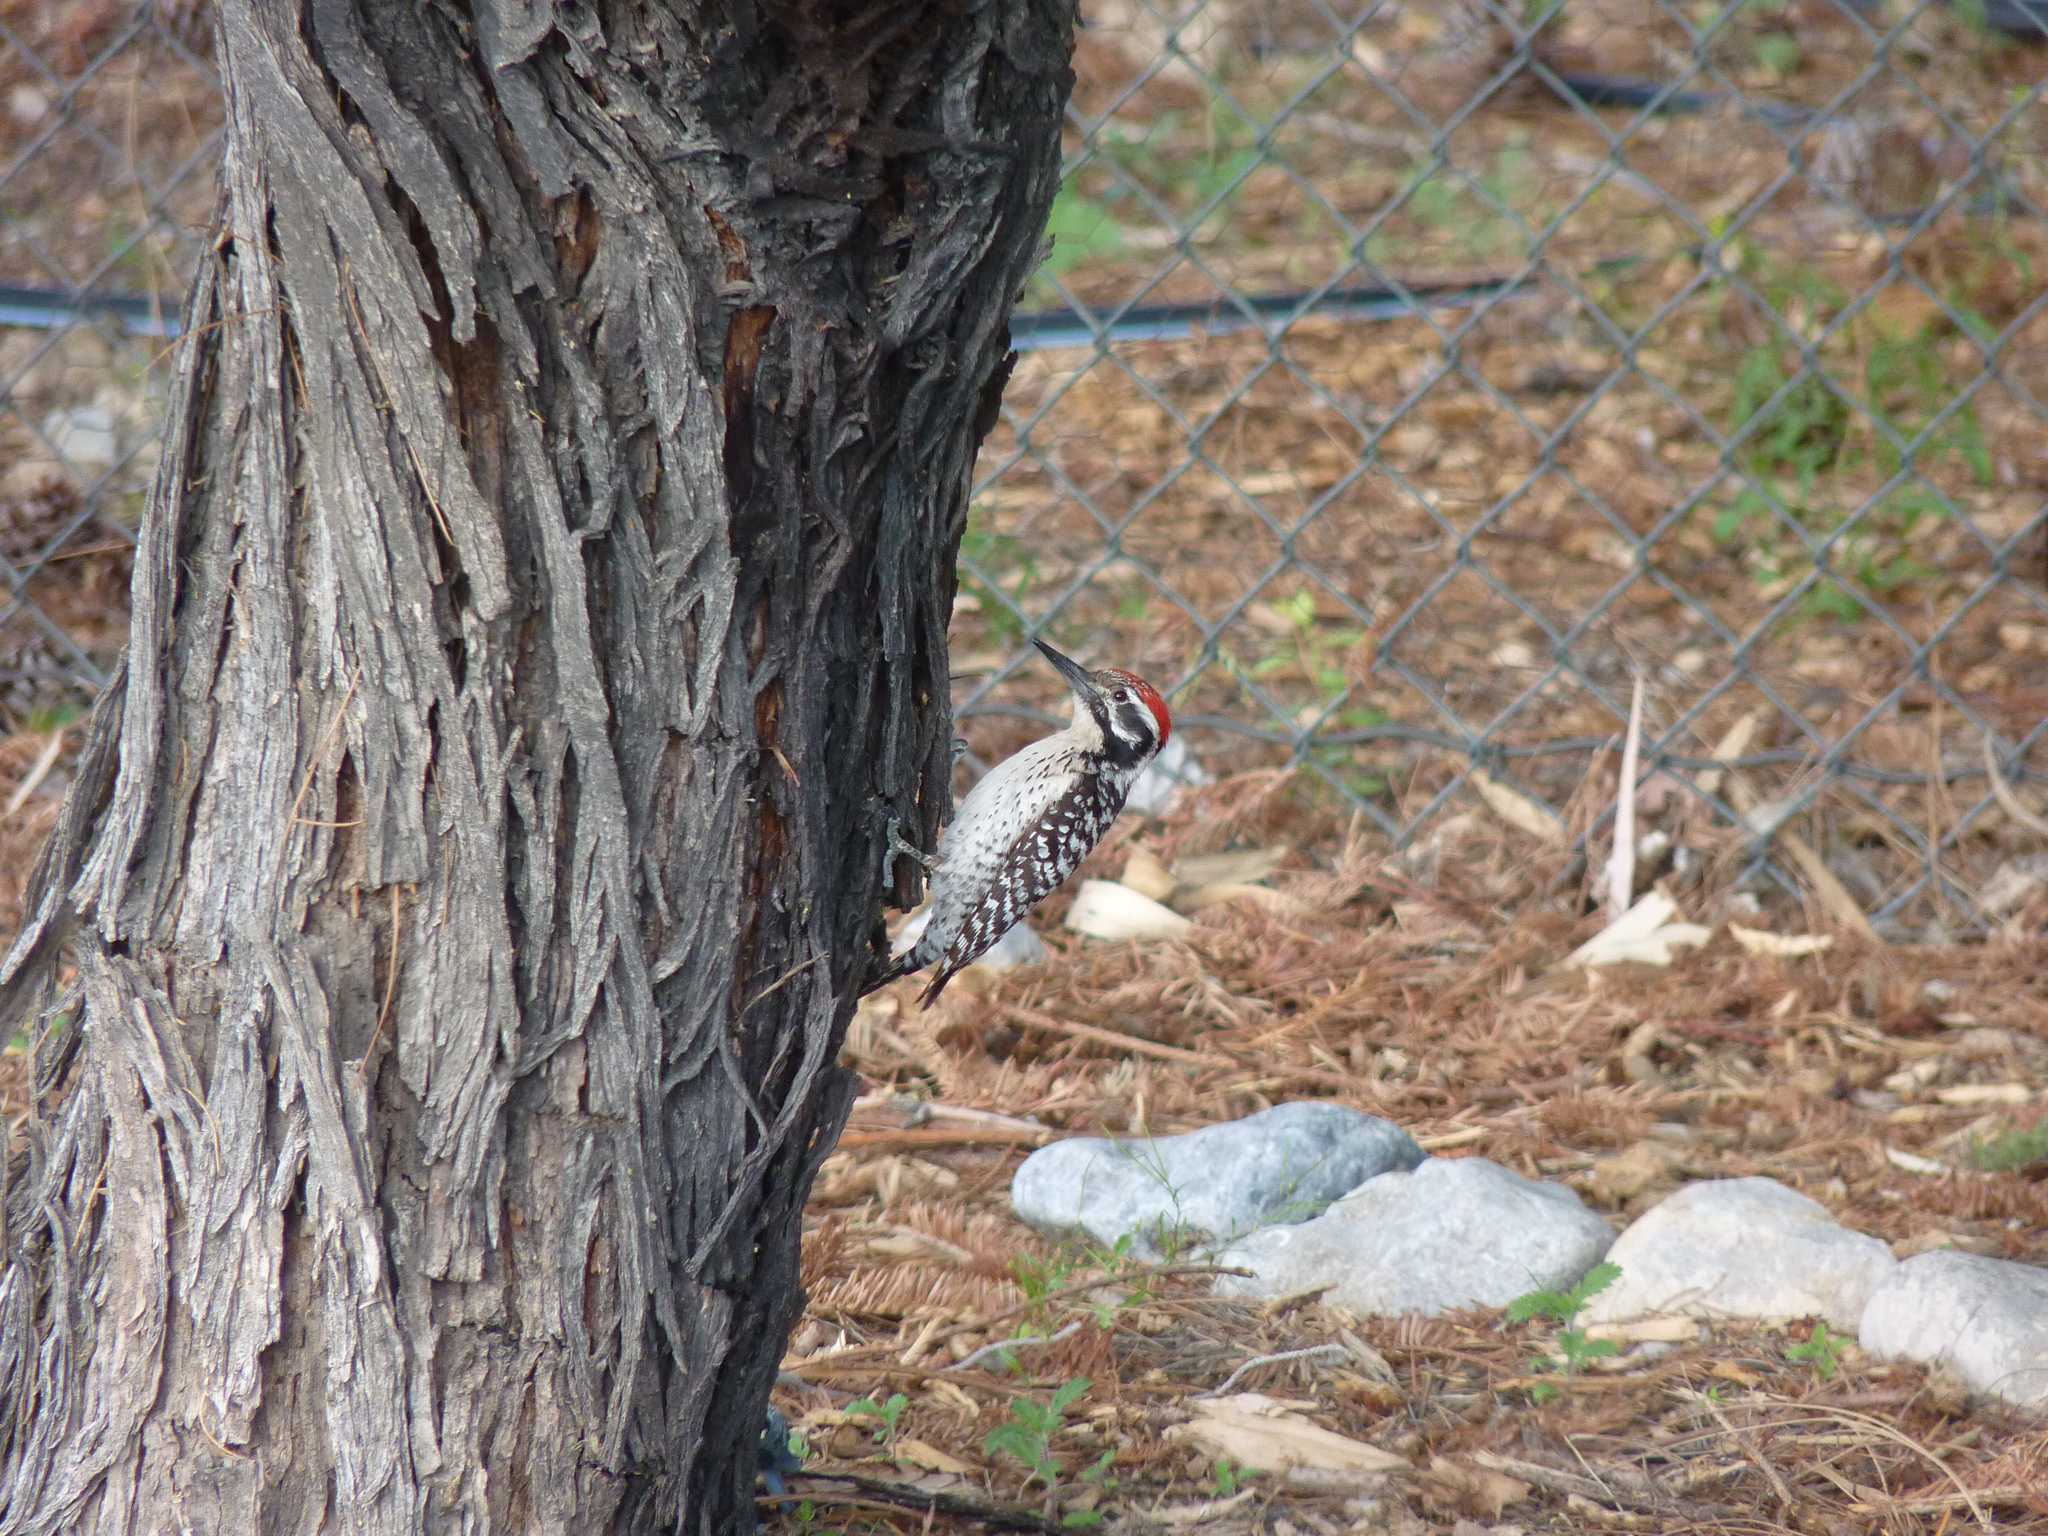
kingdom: Animalia
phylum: Chordata
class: Aves
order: Piciformes
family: Picidae
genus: Dryobates
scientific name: Dryobates scalaris
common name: Ladder-backed woodpecker
